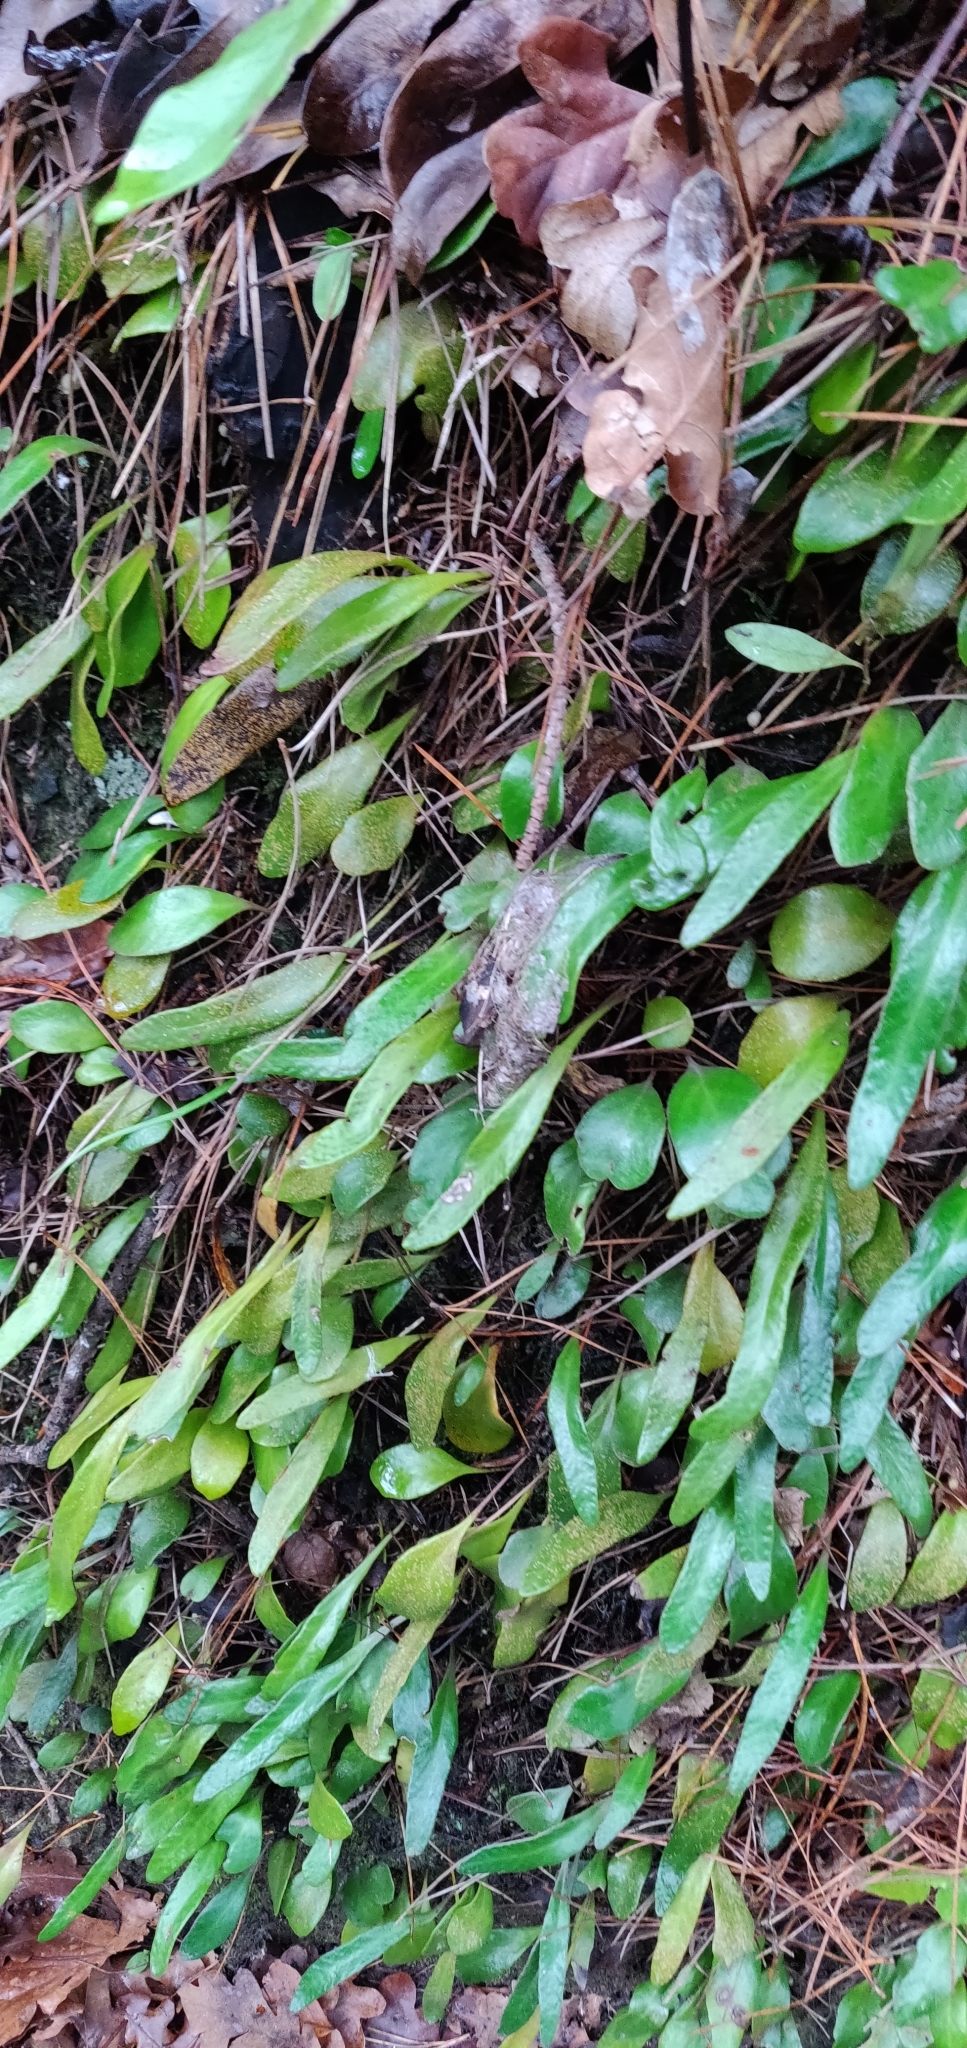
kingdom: Plantae
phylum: Tracheophyta
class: Polypodiopsida
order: Polypodiales
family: Polypodiaceae
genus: Pyrrosia
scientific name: Pyrrosia eleagnifolia
